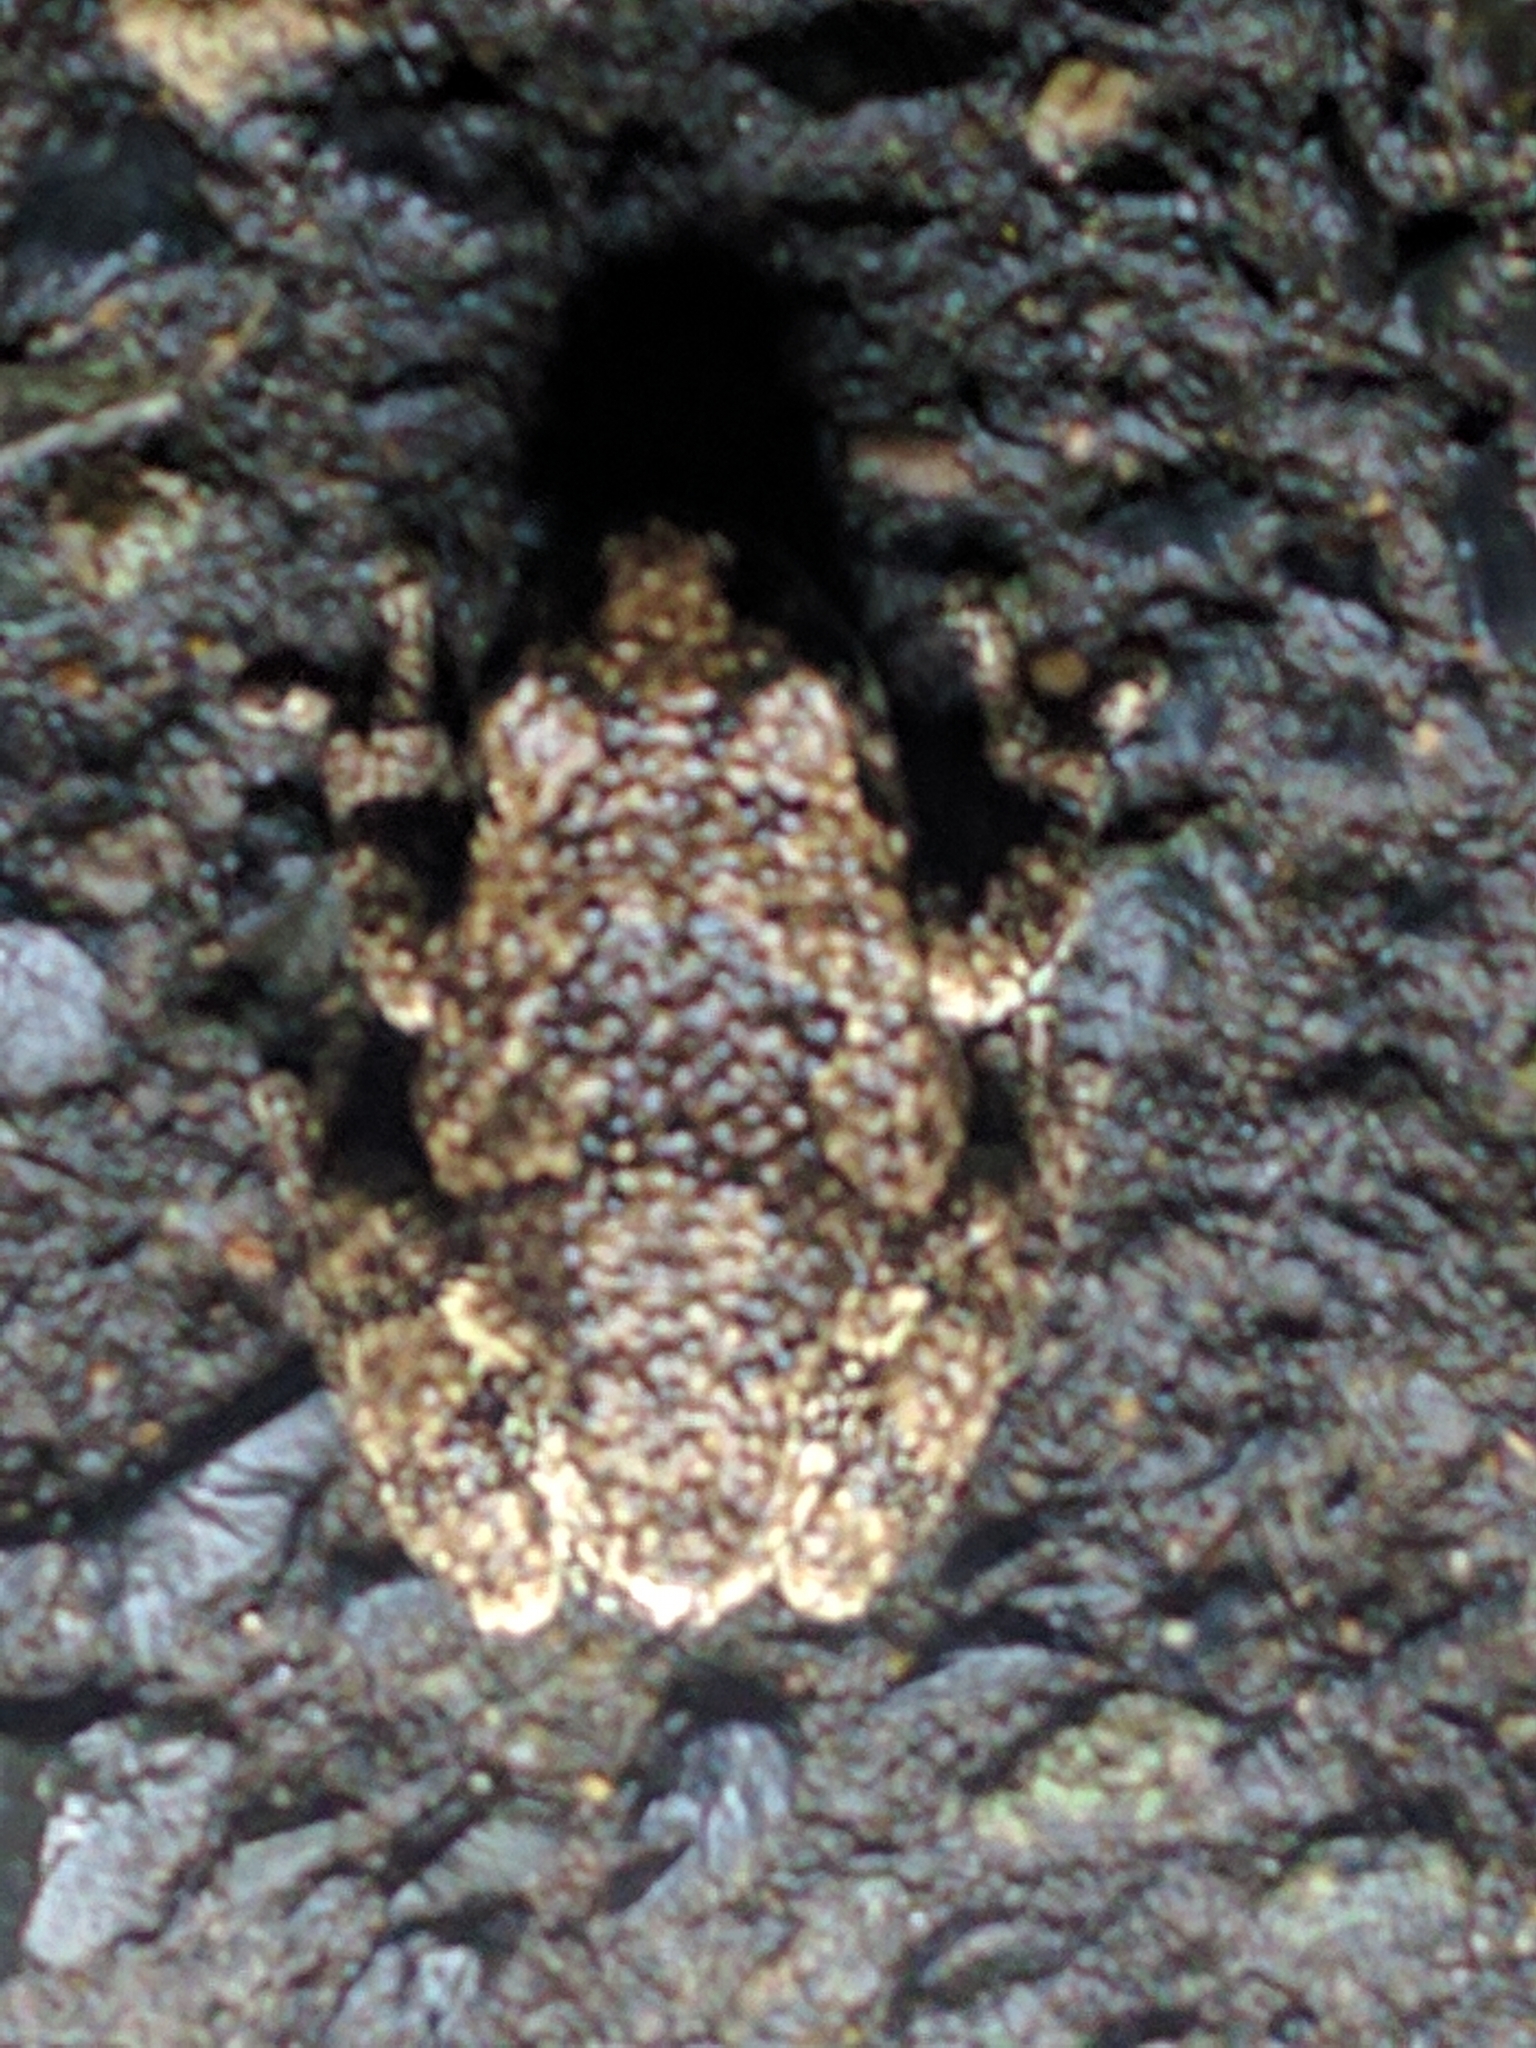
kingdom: Animalia
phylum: Chordata
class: Amphibia
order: Anura
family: Hylidae
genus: Dryophytes
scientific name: Dryophytes versicolor
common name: Gray treefrog
